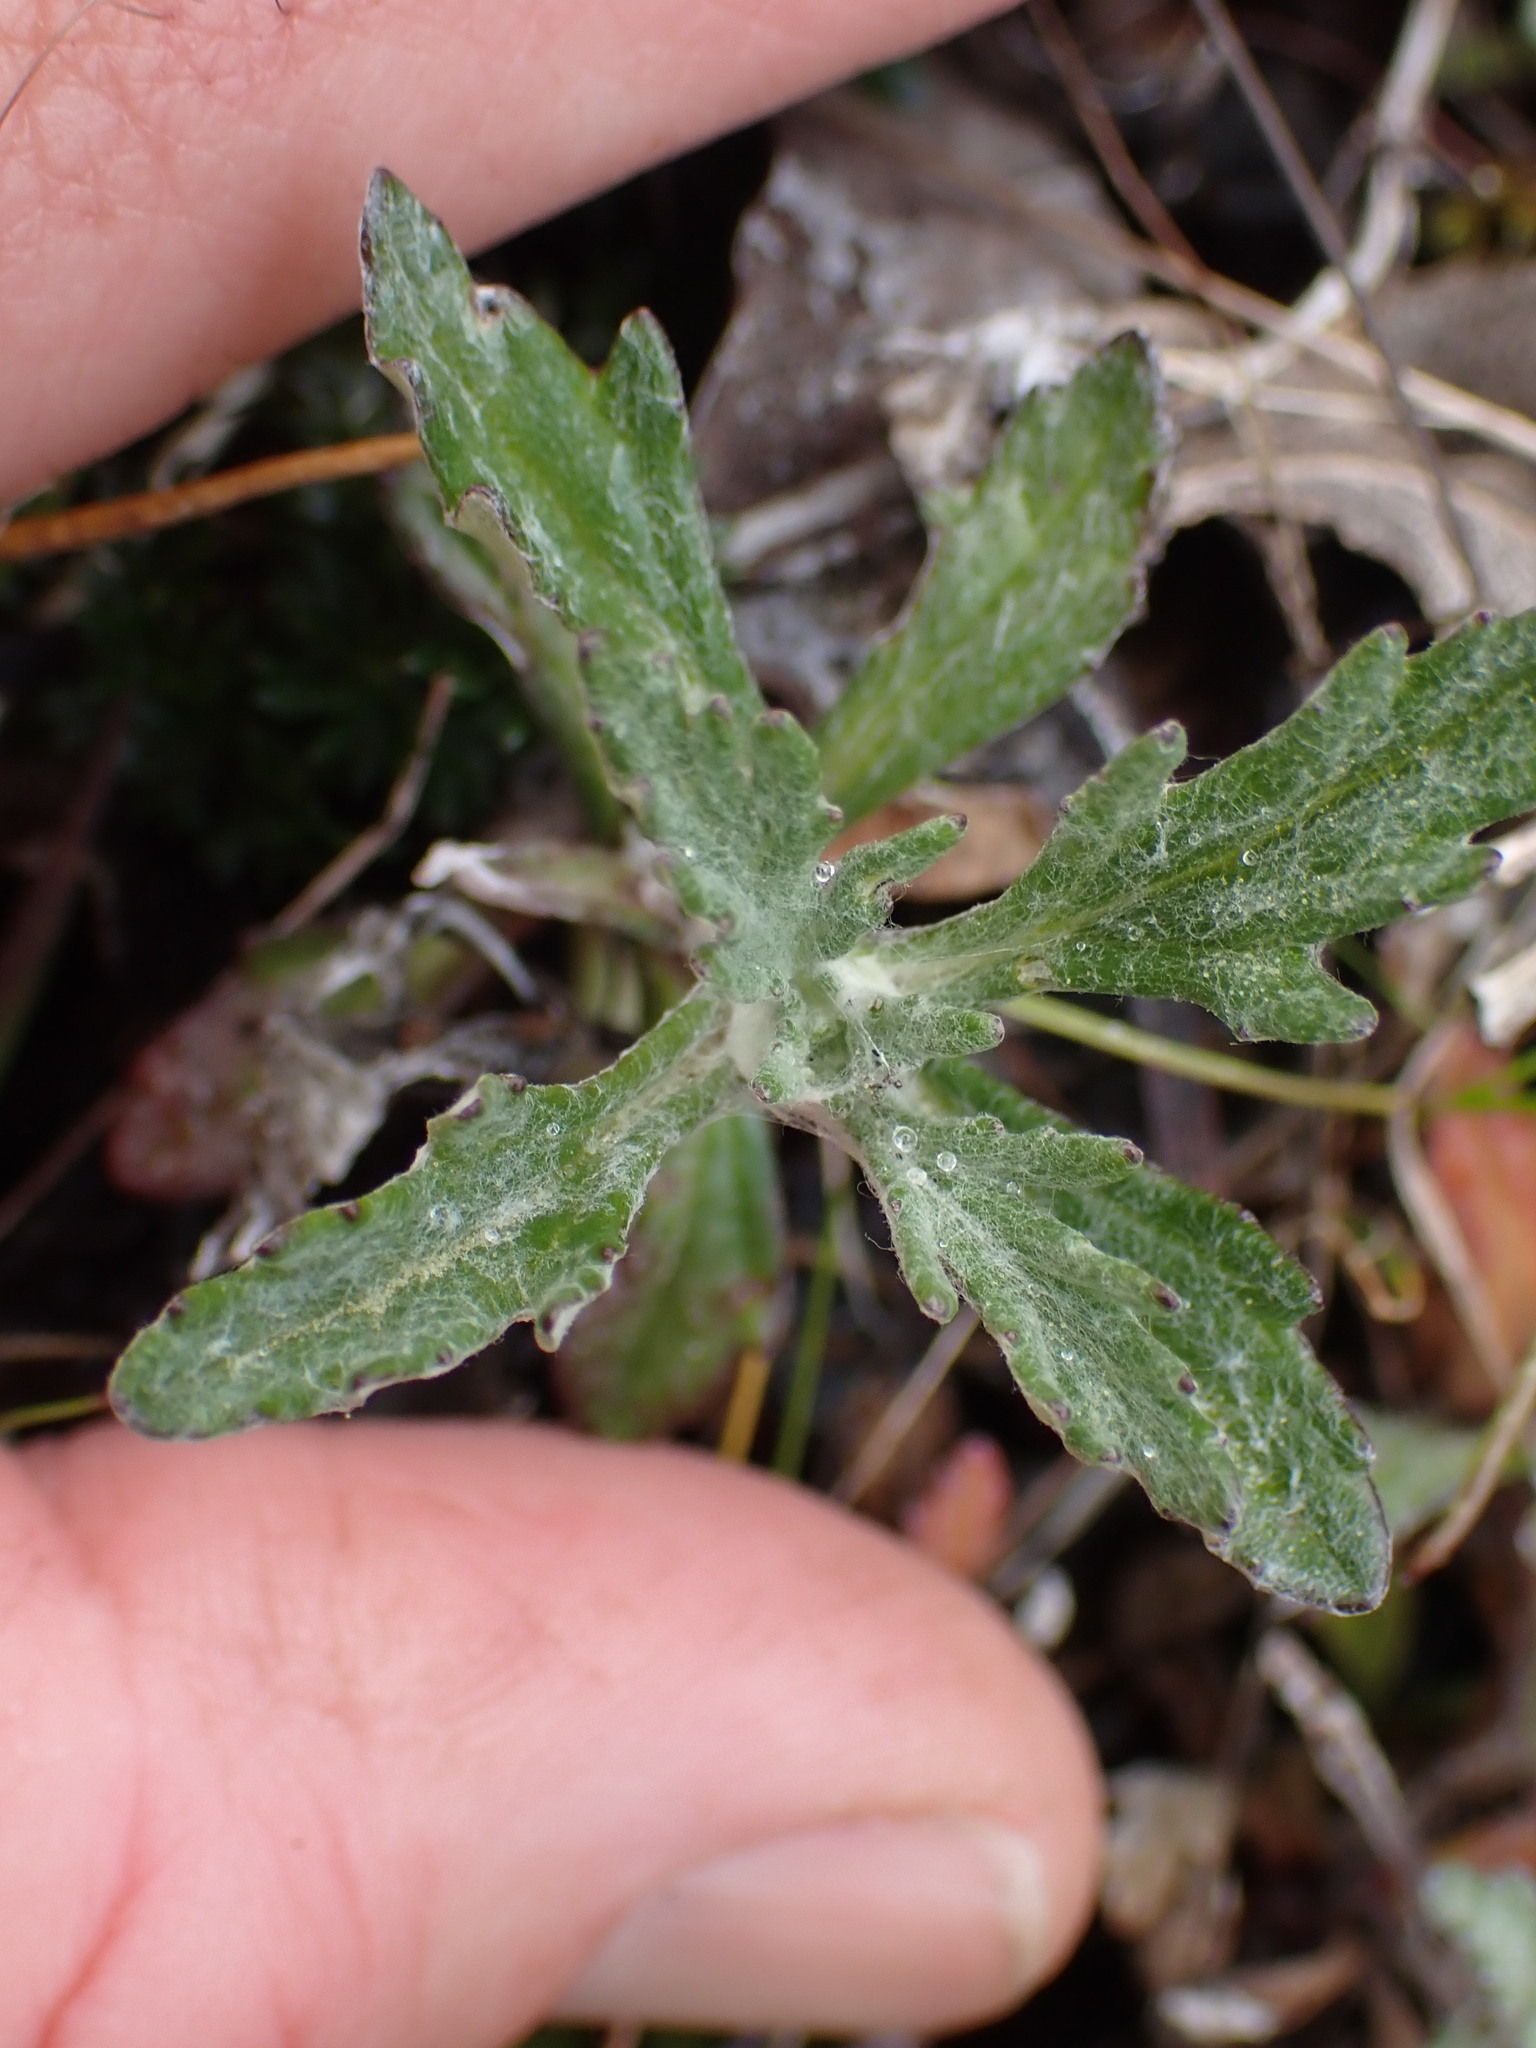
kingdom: Plantae
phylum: Tracheophyta
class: Magnoliopsida
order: Asterales
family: Asteraceae
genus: Eriophyllum
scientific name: Eriophyllum lanatum
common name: Common woolly-sunflower
